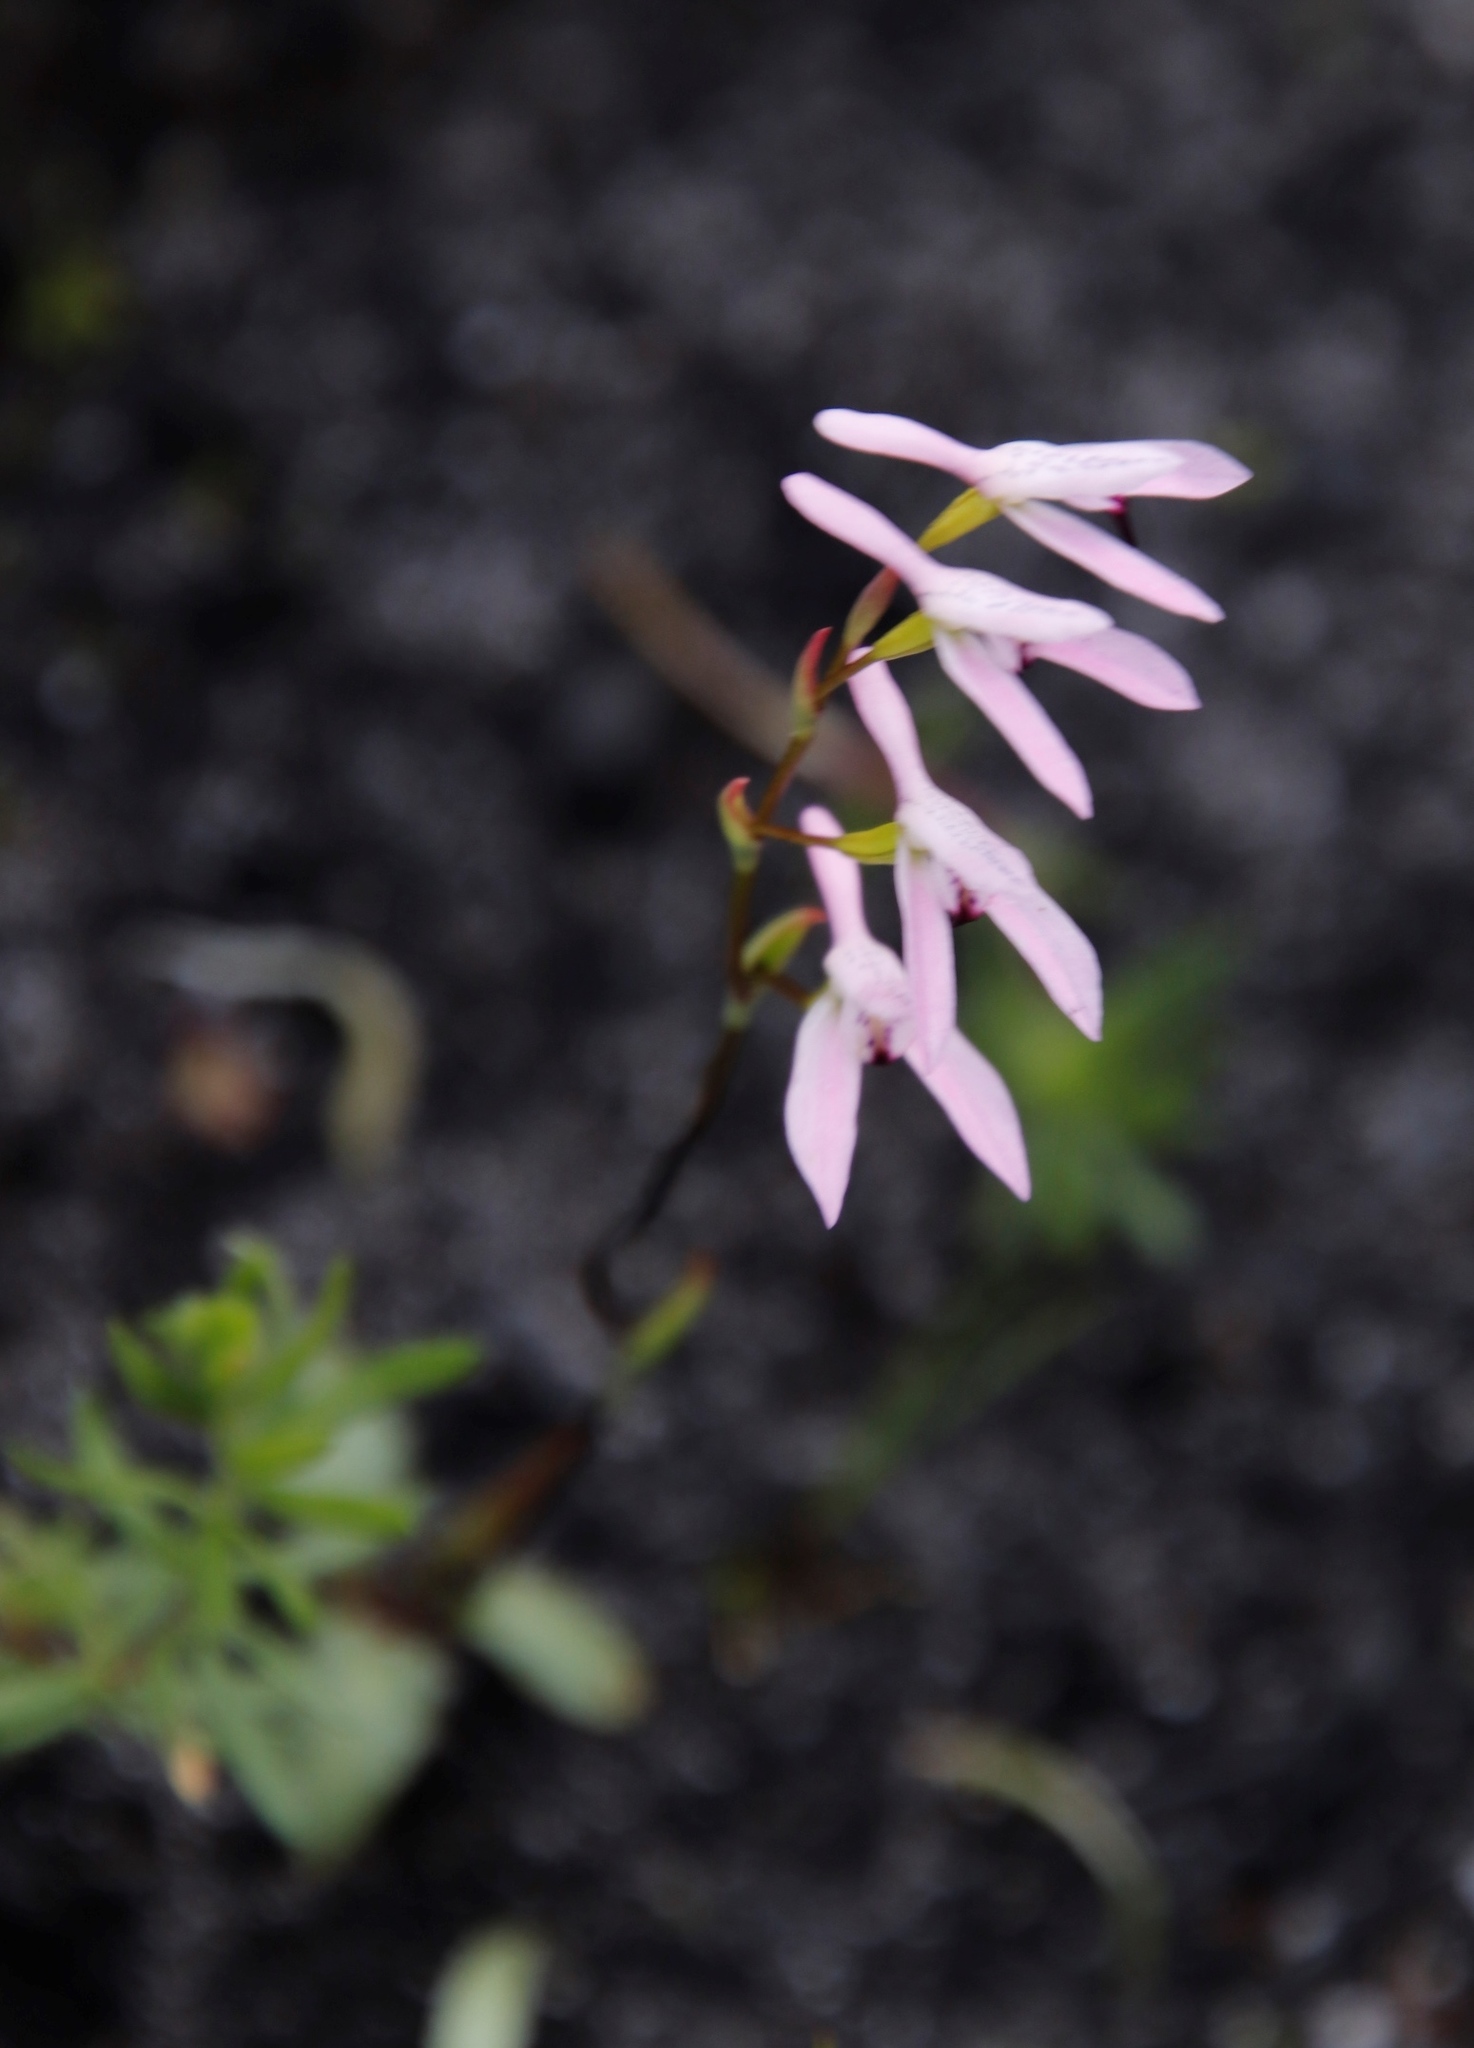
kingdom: Plantae
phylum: Tracheophyta
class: Liliopsida
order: Asparagales
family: Orchidaceae
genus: Disa
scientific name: Disa obliqua
